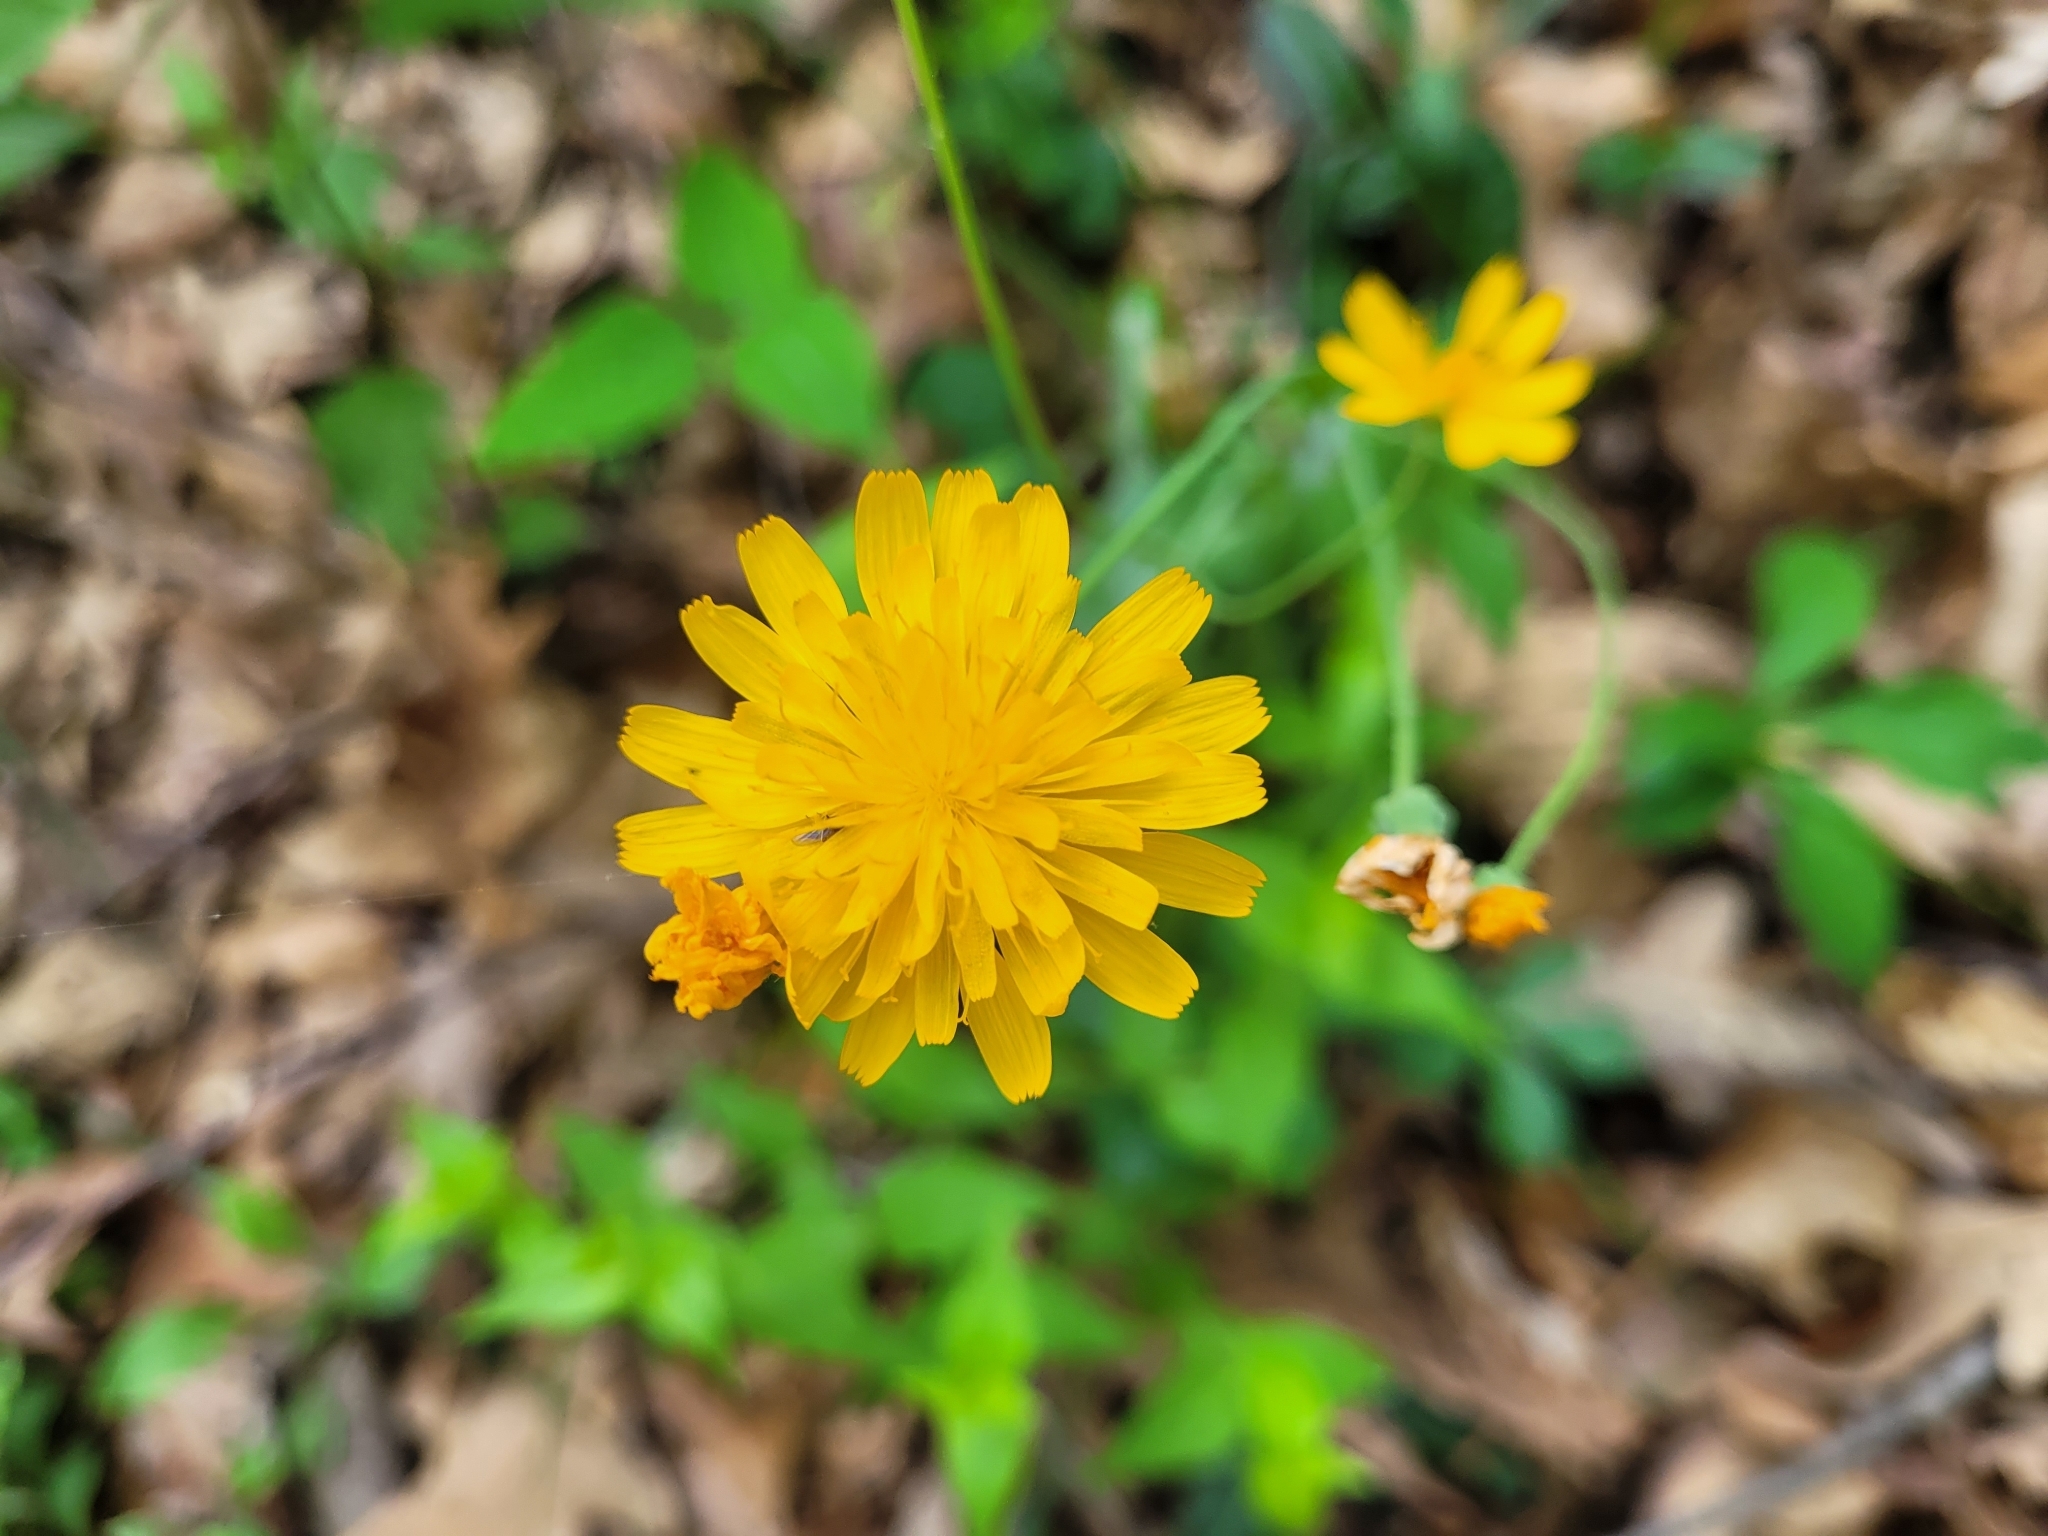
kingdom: Plantae
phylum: Tracheophyta
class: Magnoliopsida
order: Asterales
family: Asteraceae
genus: Krigia
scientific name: Krigia biflora
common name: Orange dwarf-dandelion
